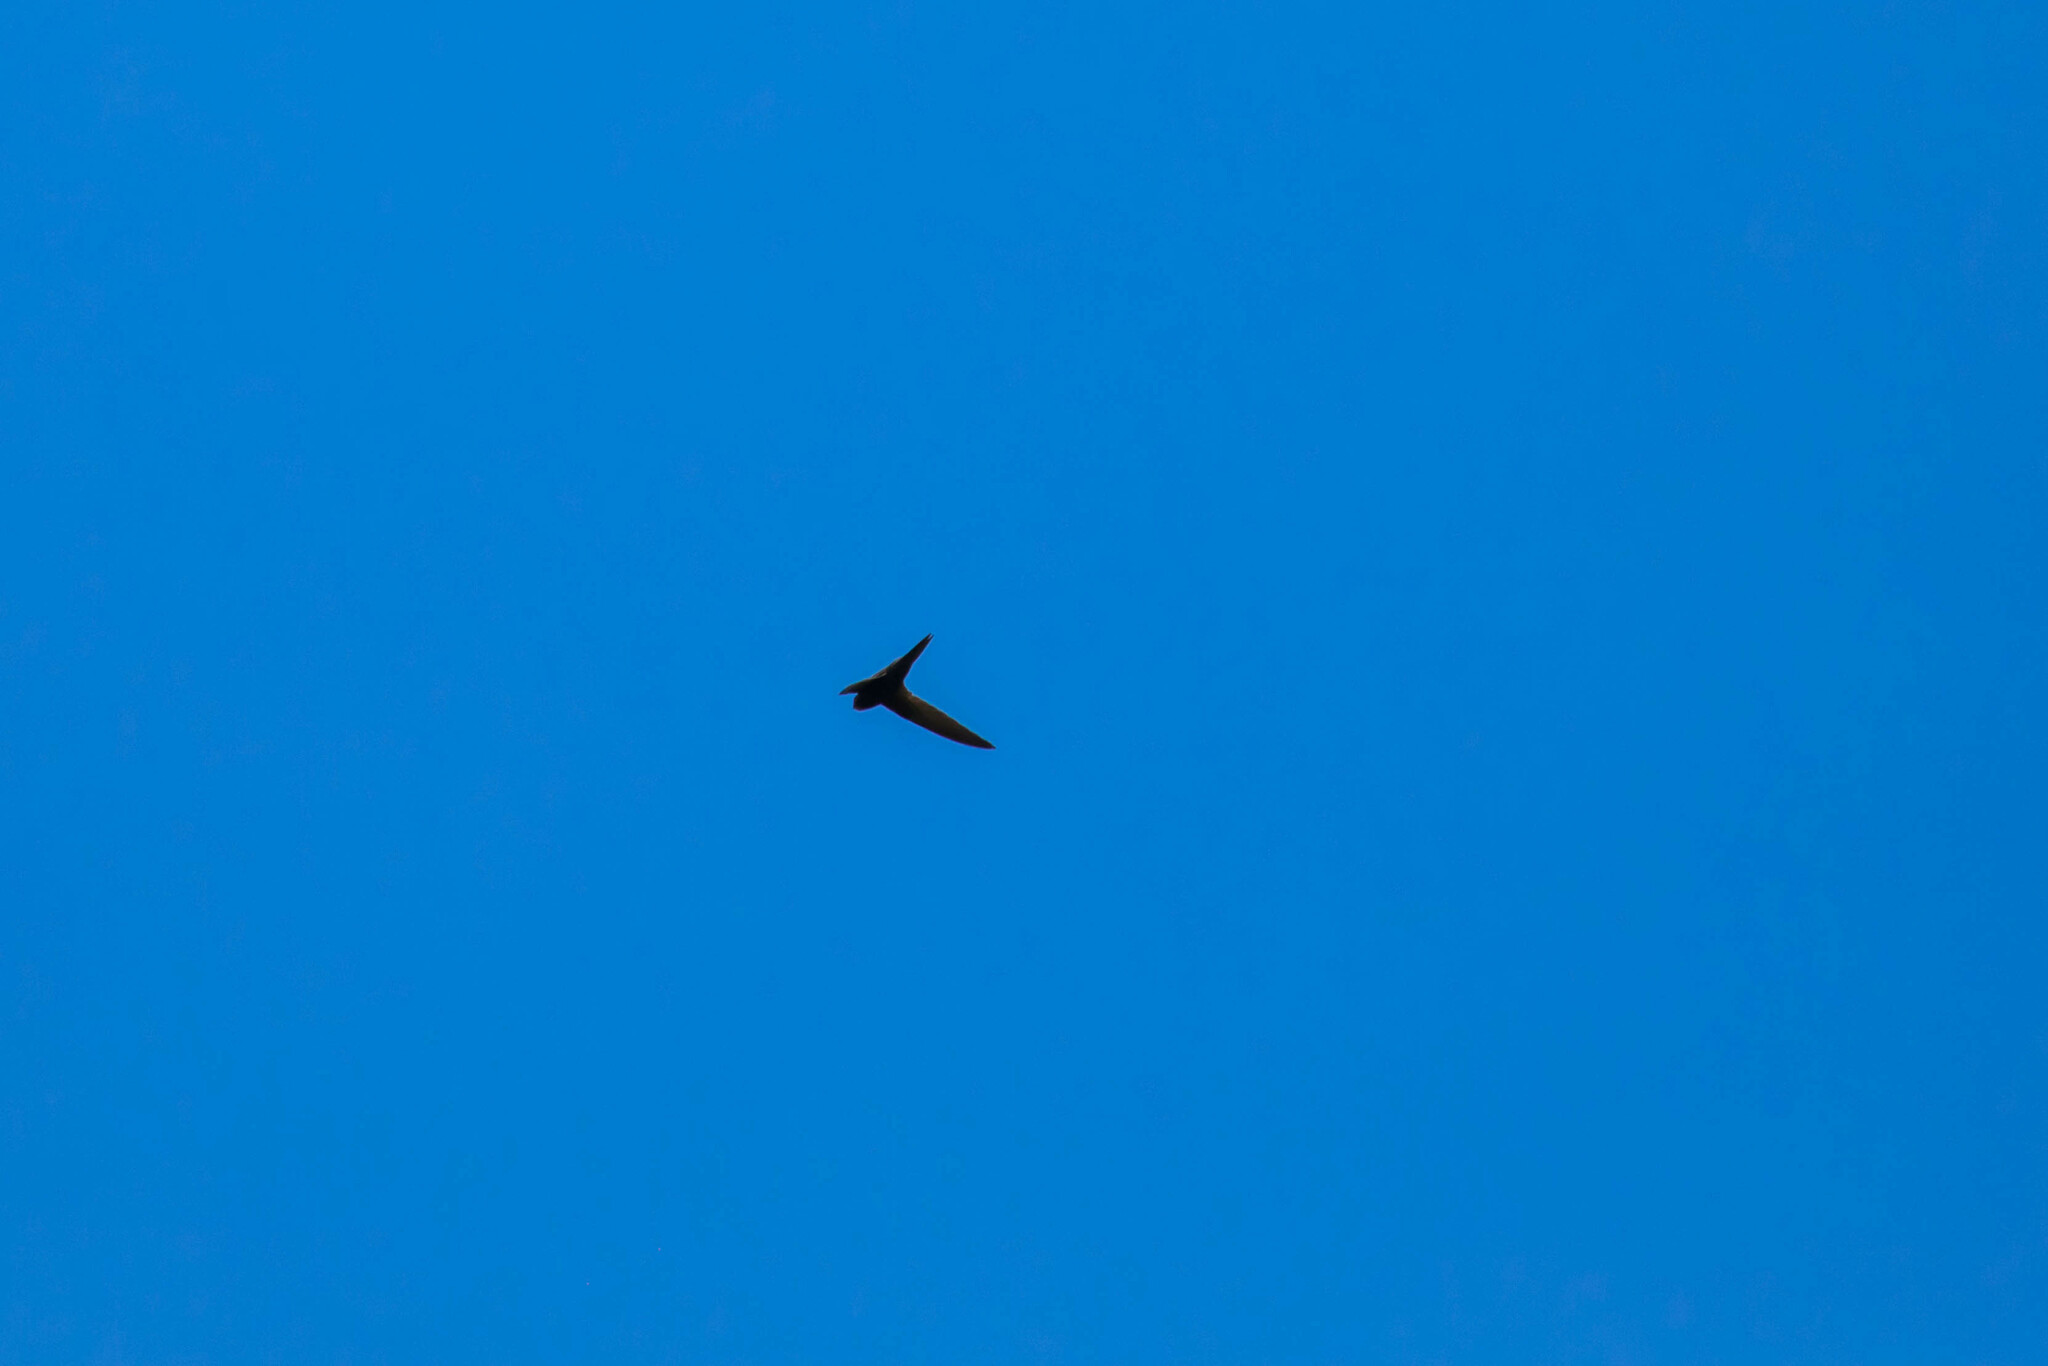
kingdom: Animalia
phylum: Chordata
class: Aves
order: Apodiformes
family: Apodidae
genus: Apus
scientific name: Apus apus
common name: Common swift
